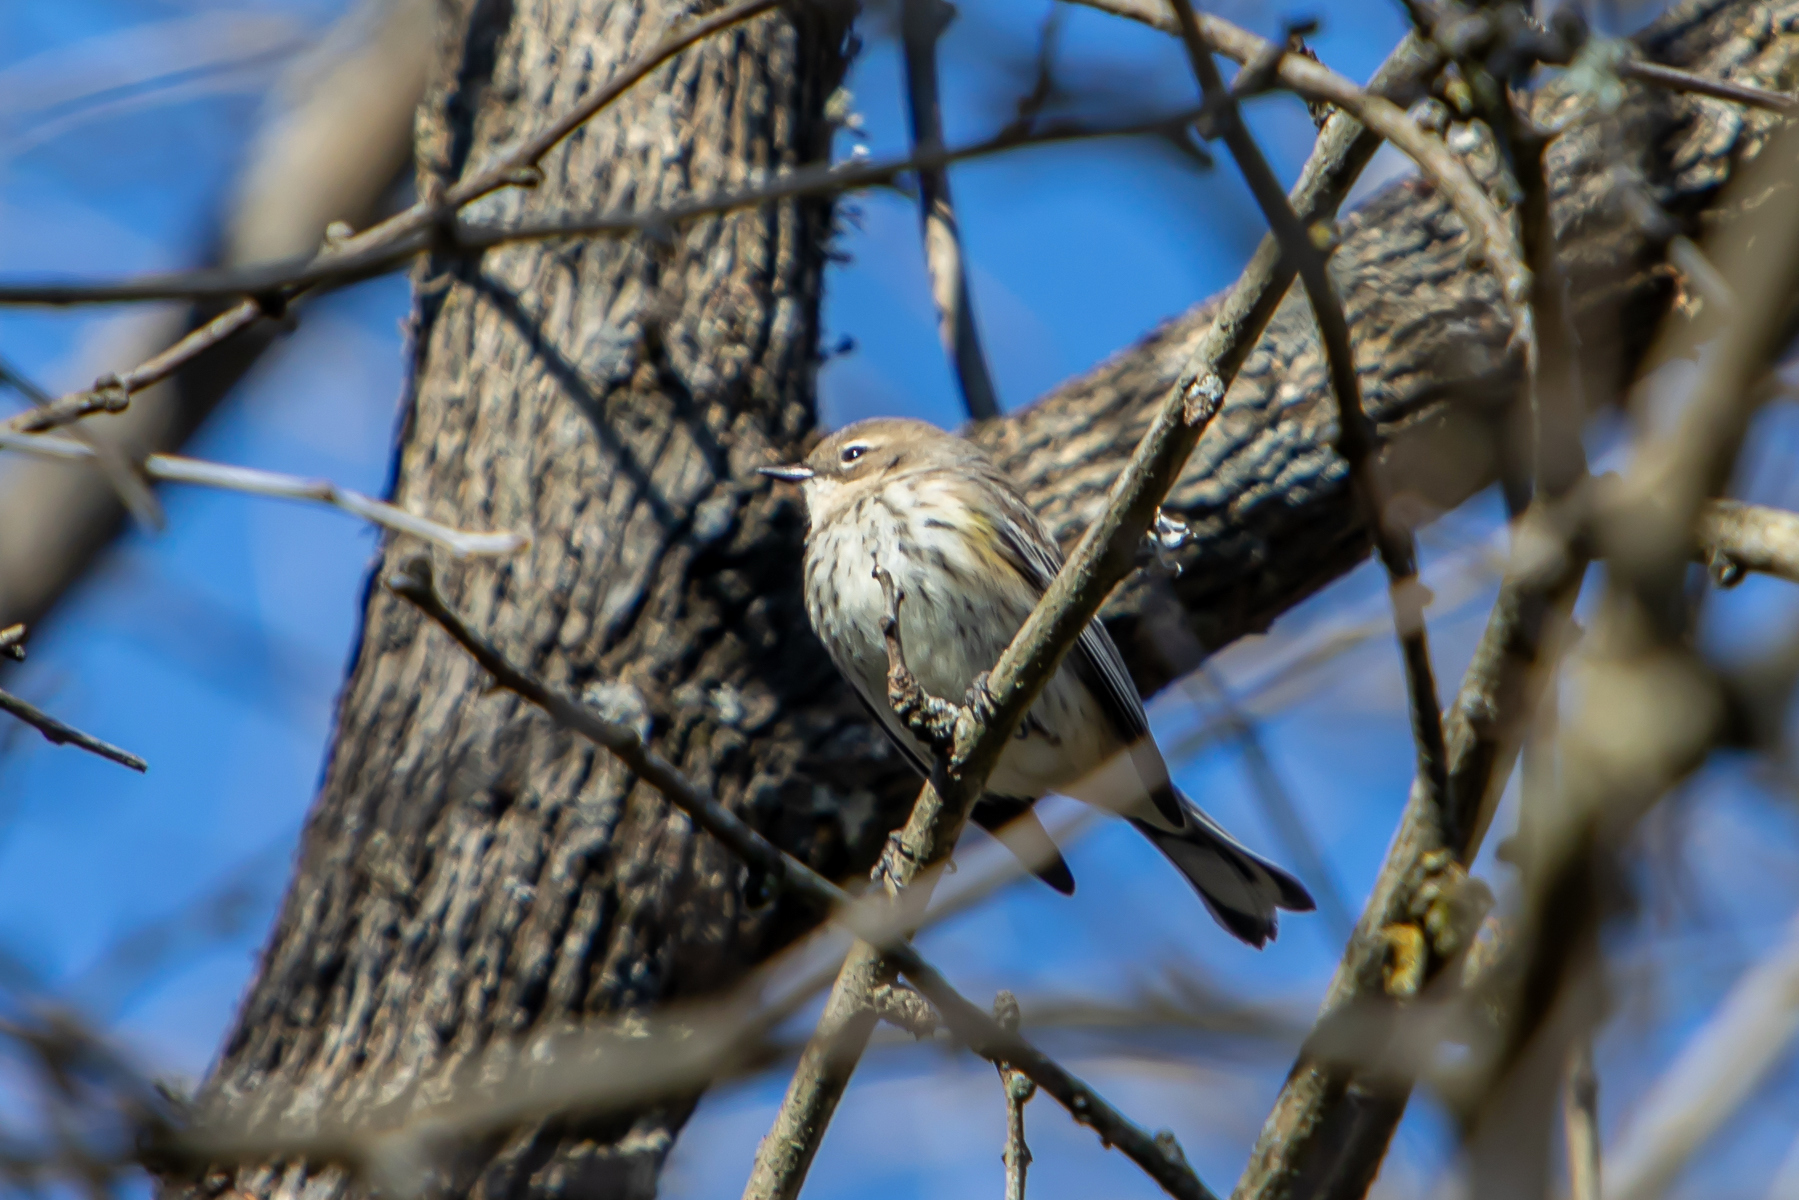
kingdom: Animalia
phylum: Chordata
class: Aves
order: Passeriformes
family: Parulidae
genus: Setophaga
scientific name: Setophaga coronata
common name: Myrtle warbler
